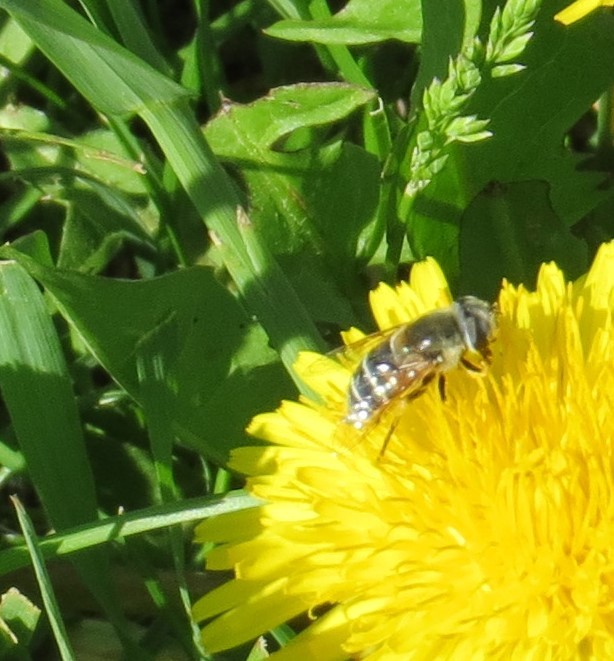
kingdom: Animalia
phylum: Arthropoda
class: Insecta
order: Diptera
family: Syrphidae
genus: Eristalis
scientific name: Eristalis stipator
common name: Yellow-shouldered drone fly
